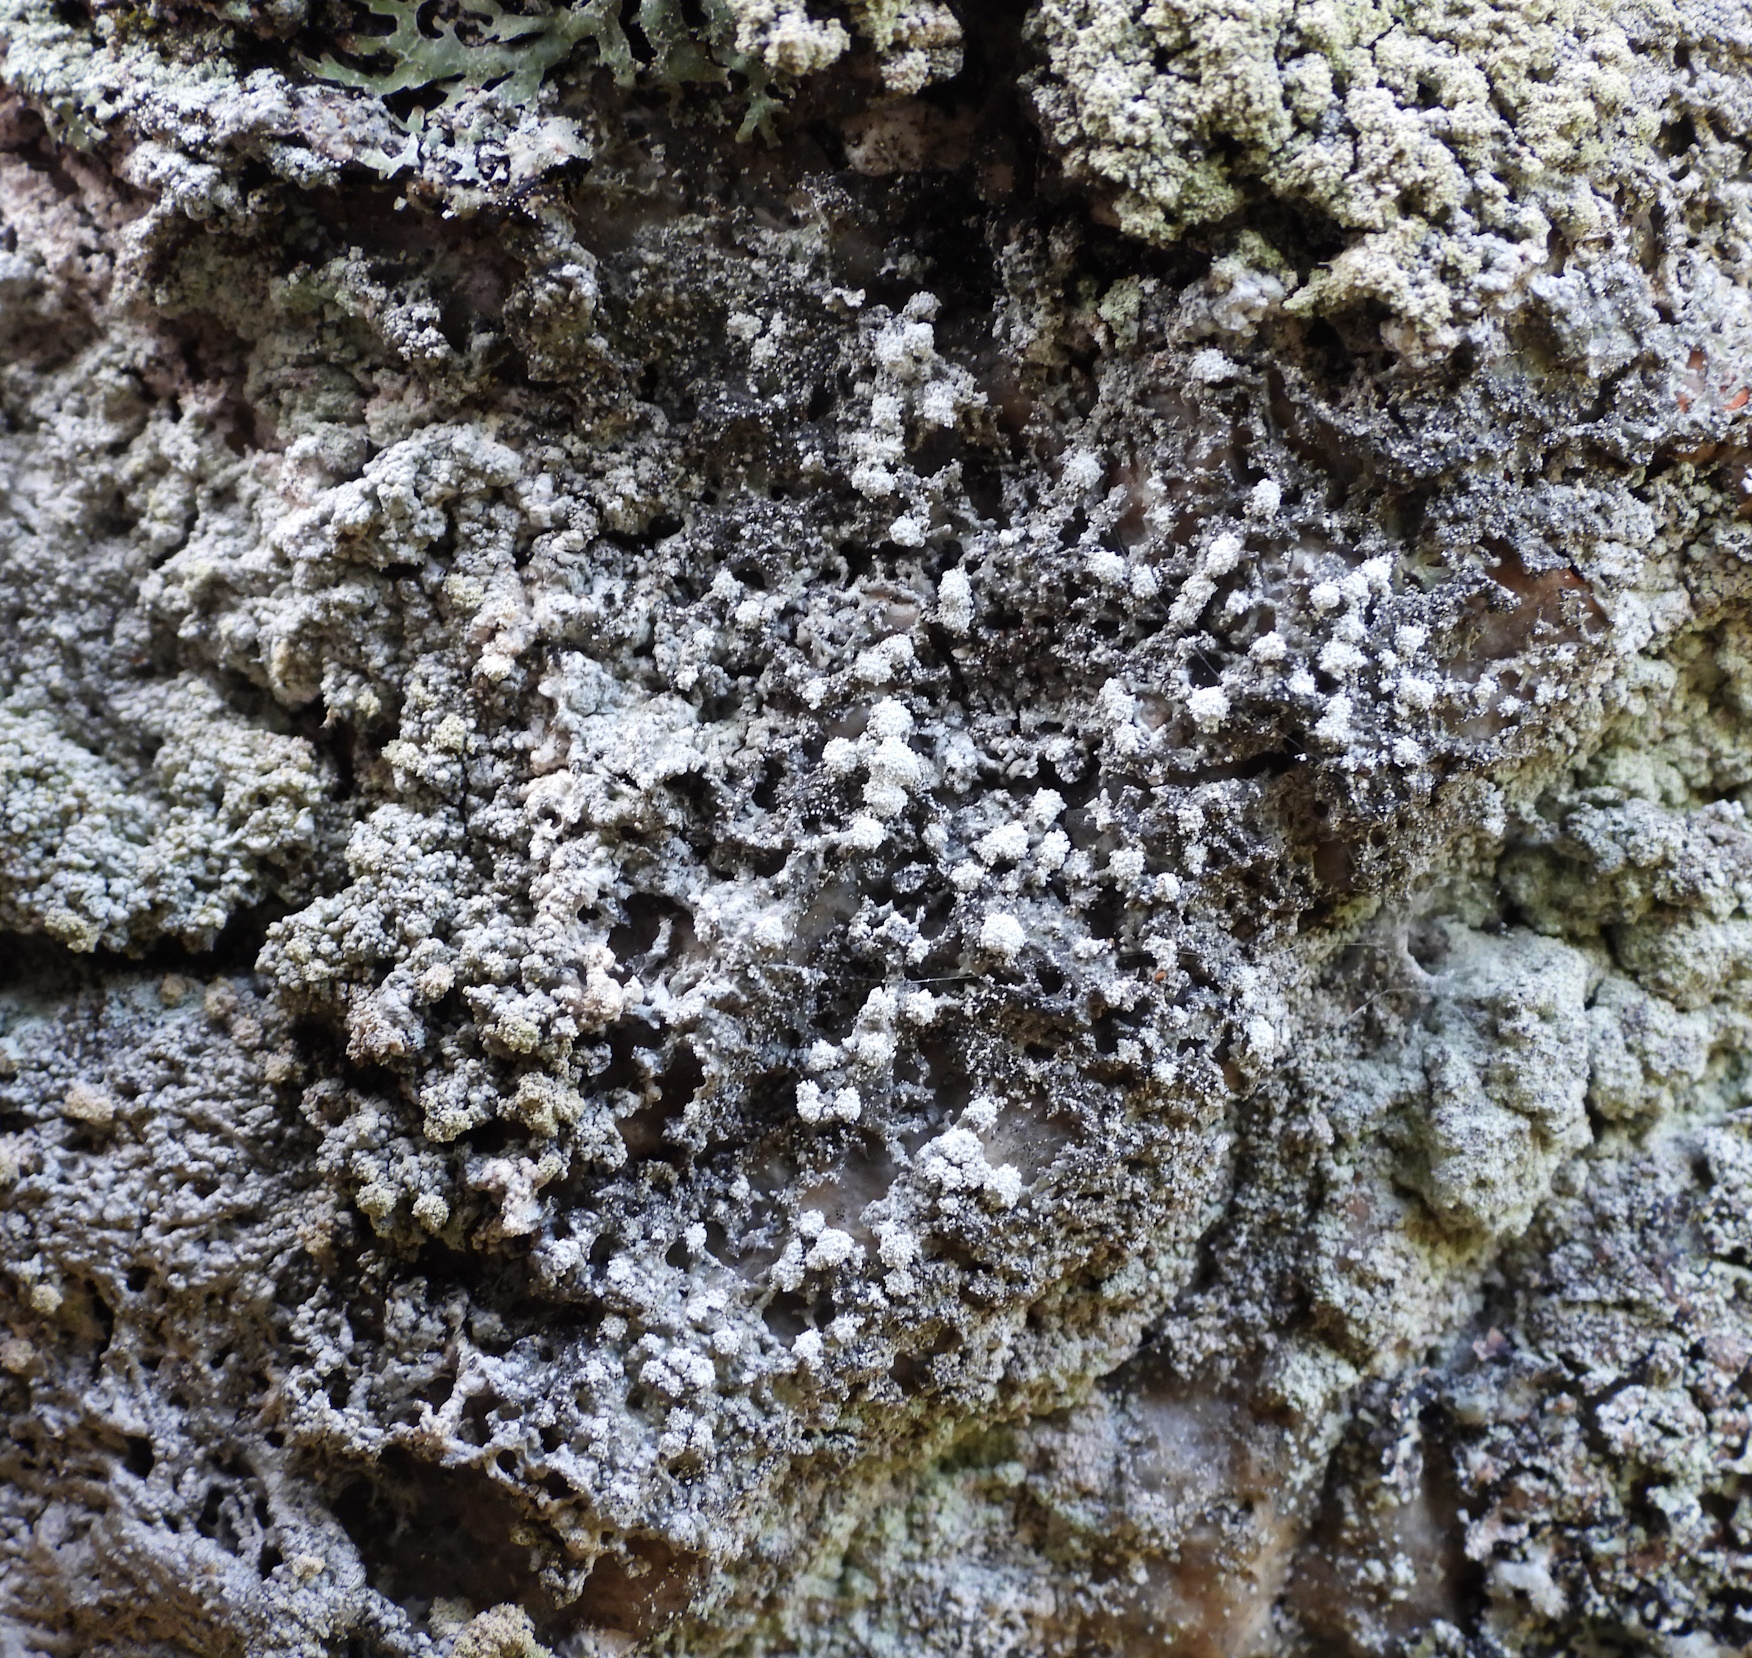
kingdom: Fungi
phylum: Ascomycota
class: Lecanoromycetes
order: Pertusariales
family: Pertusariaceae
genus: Lepra
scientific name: Lepra amara
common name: Bitter wart lichen
